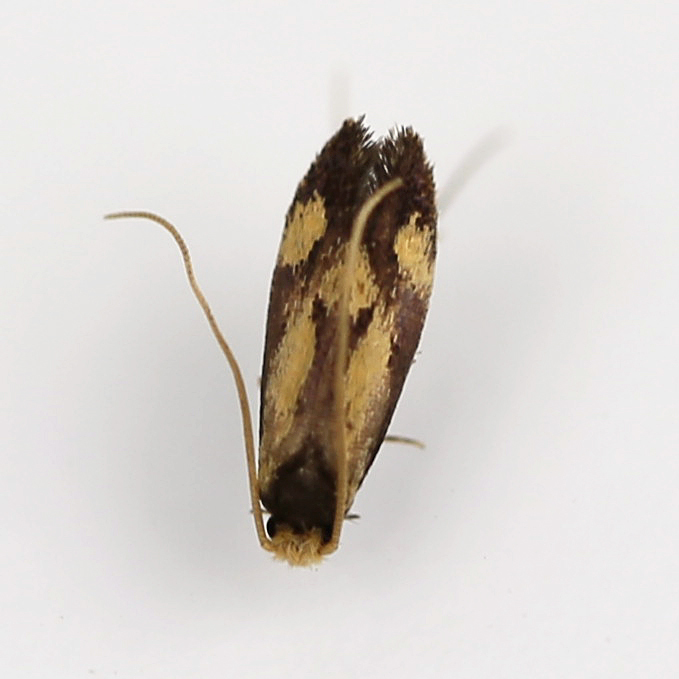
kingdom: Animalia
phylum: Arthropoda
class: Insecta
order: Lepidoptera
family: Meessiidae
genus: Isocorypha
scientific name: Isocorypha mediostriatella
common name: Old gold isocorypha moth
